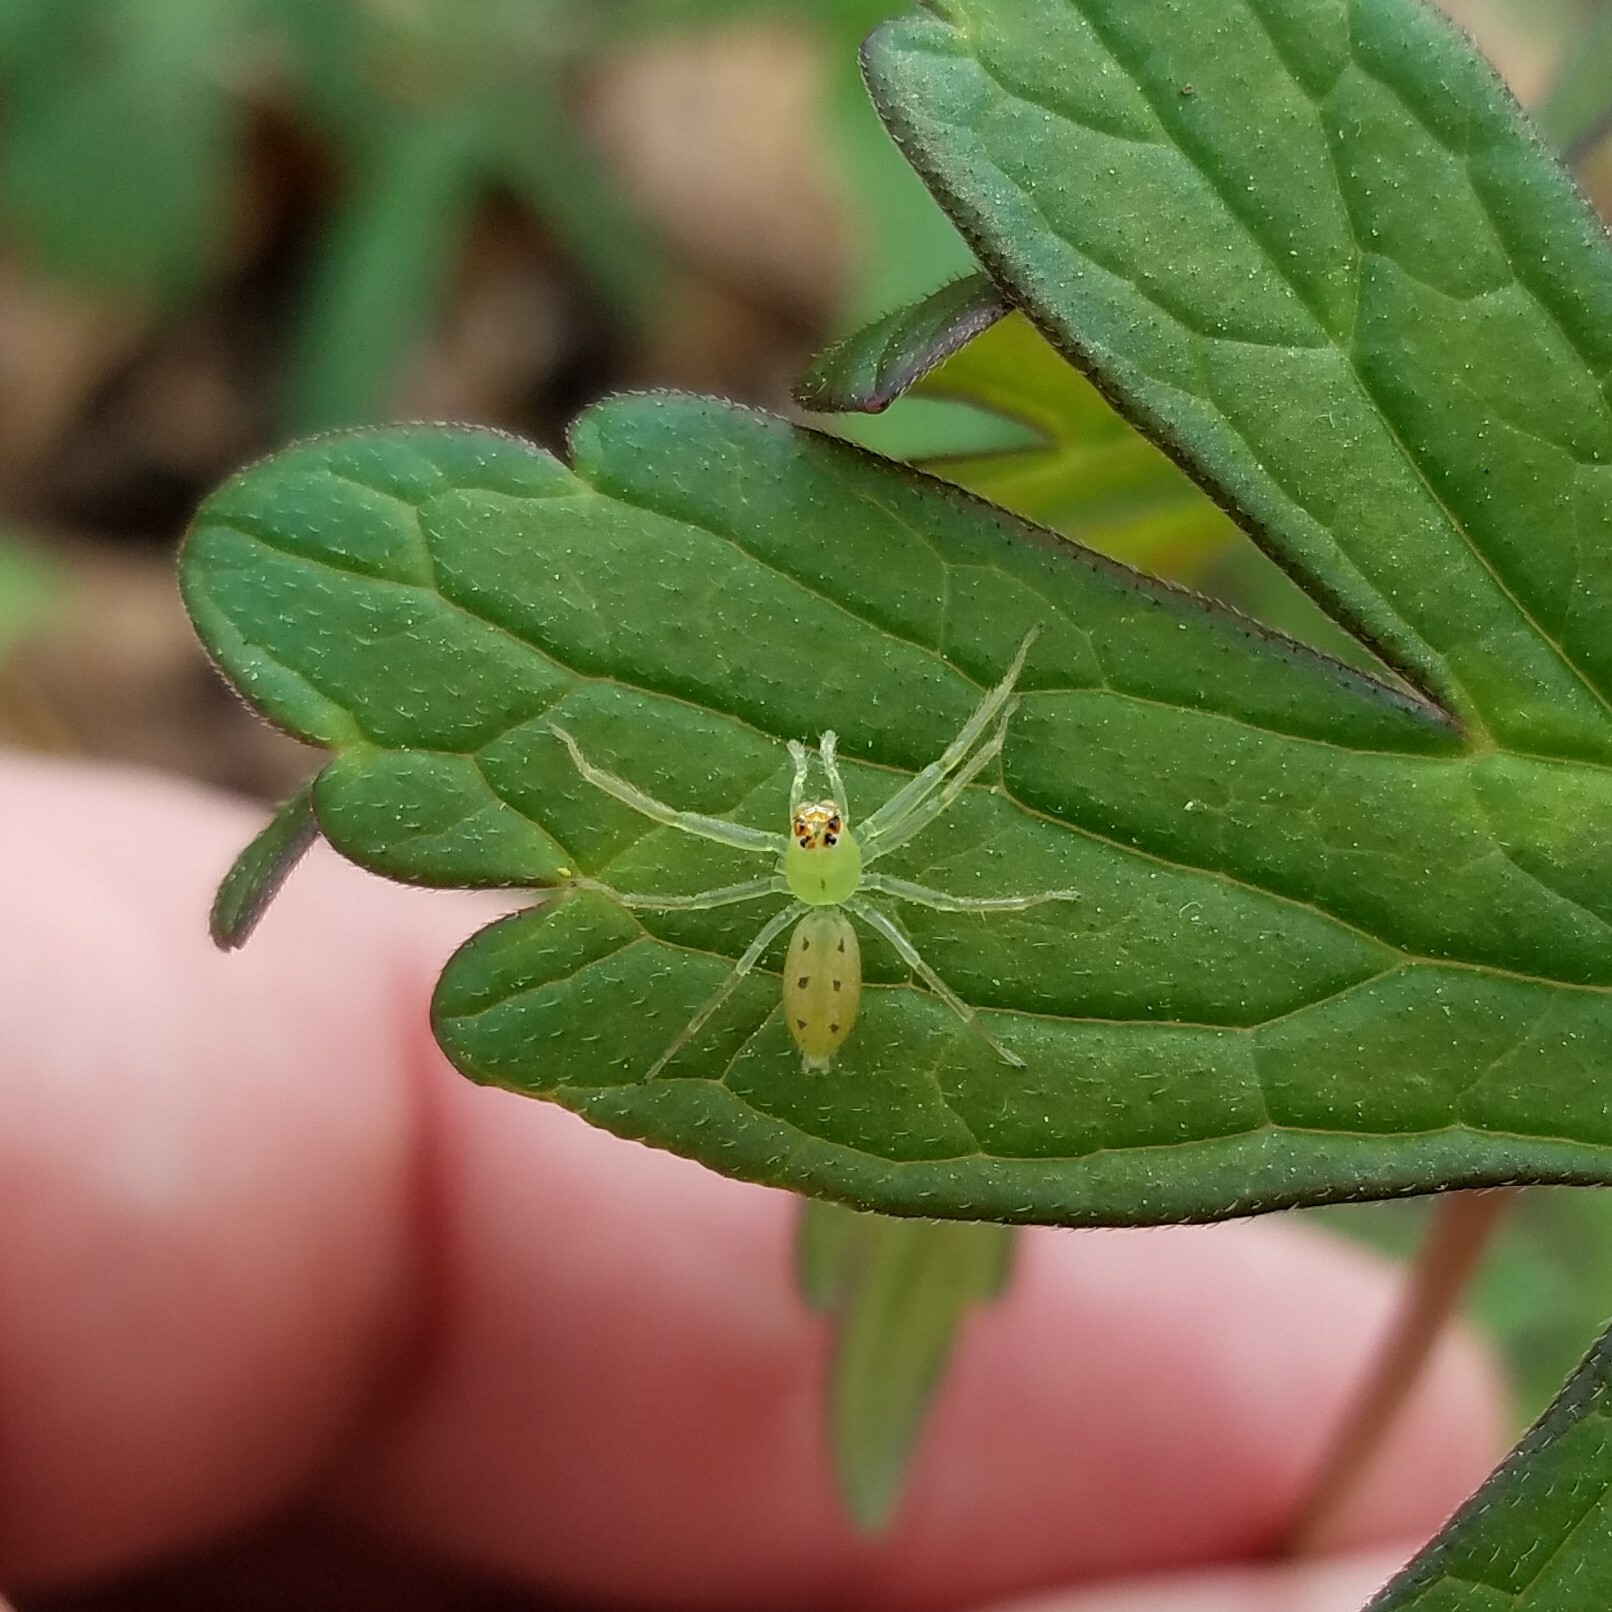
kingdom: Animalia
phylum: Arthropoda
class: Arachnida
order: Araneae
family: Salticidae
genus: Lyssomanes
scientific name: Lyssomanes viridis
